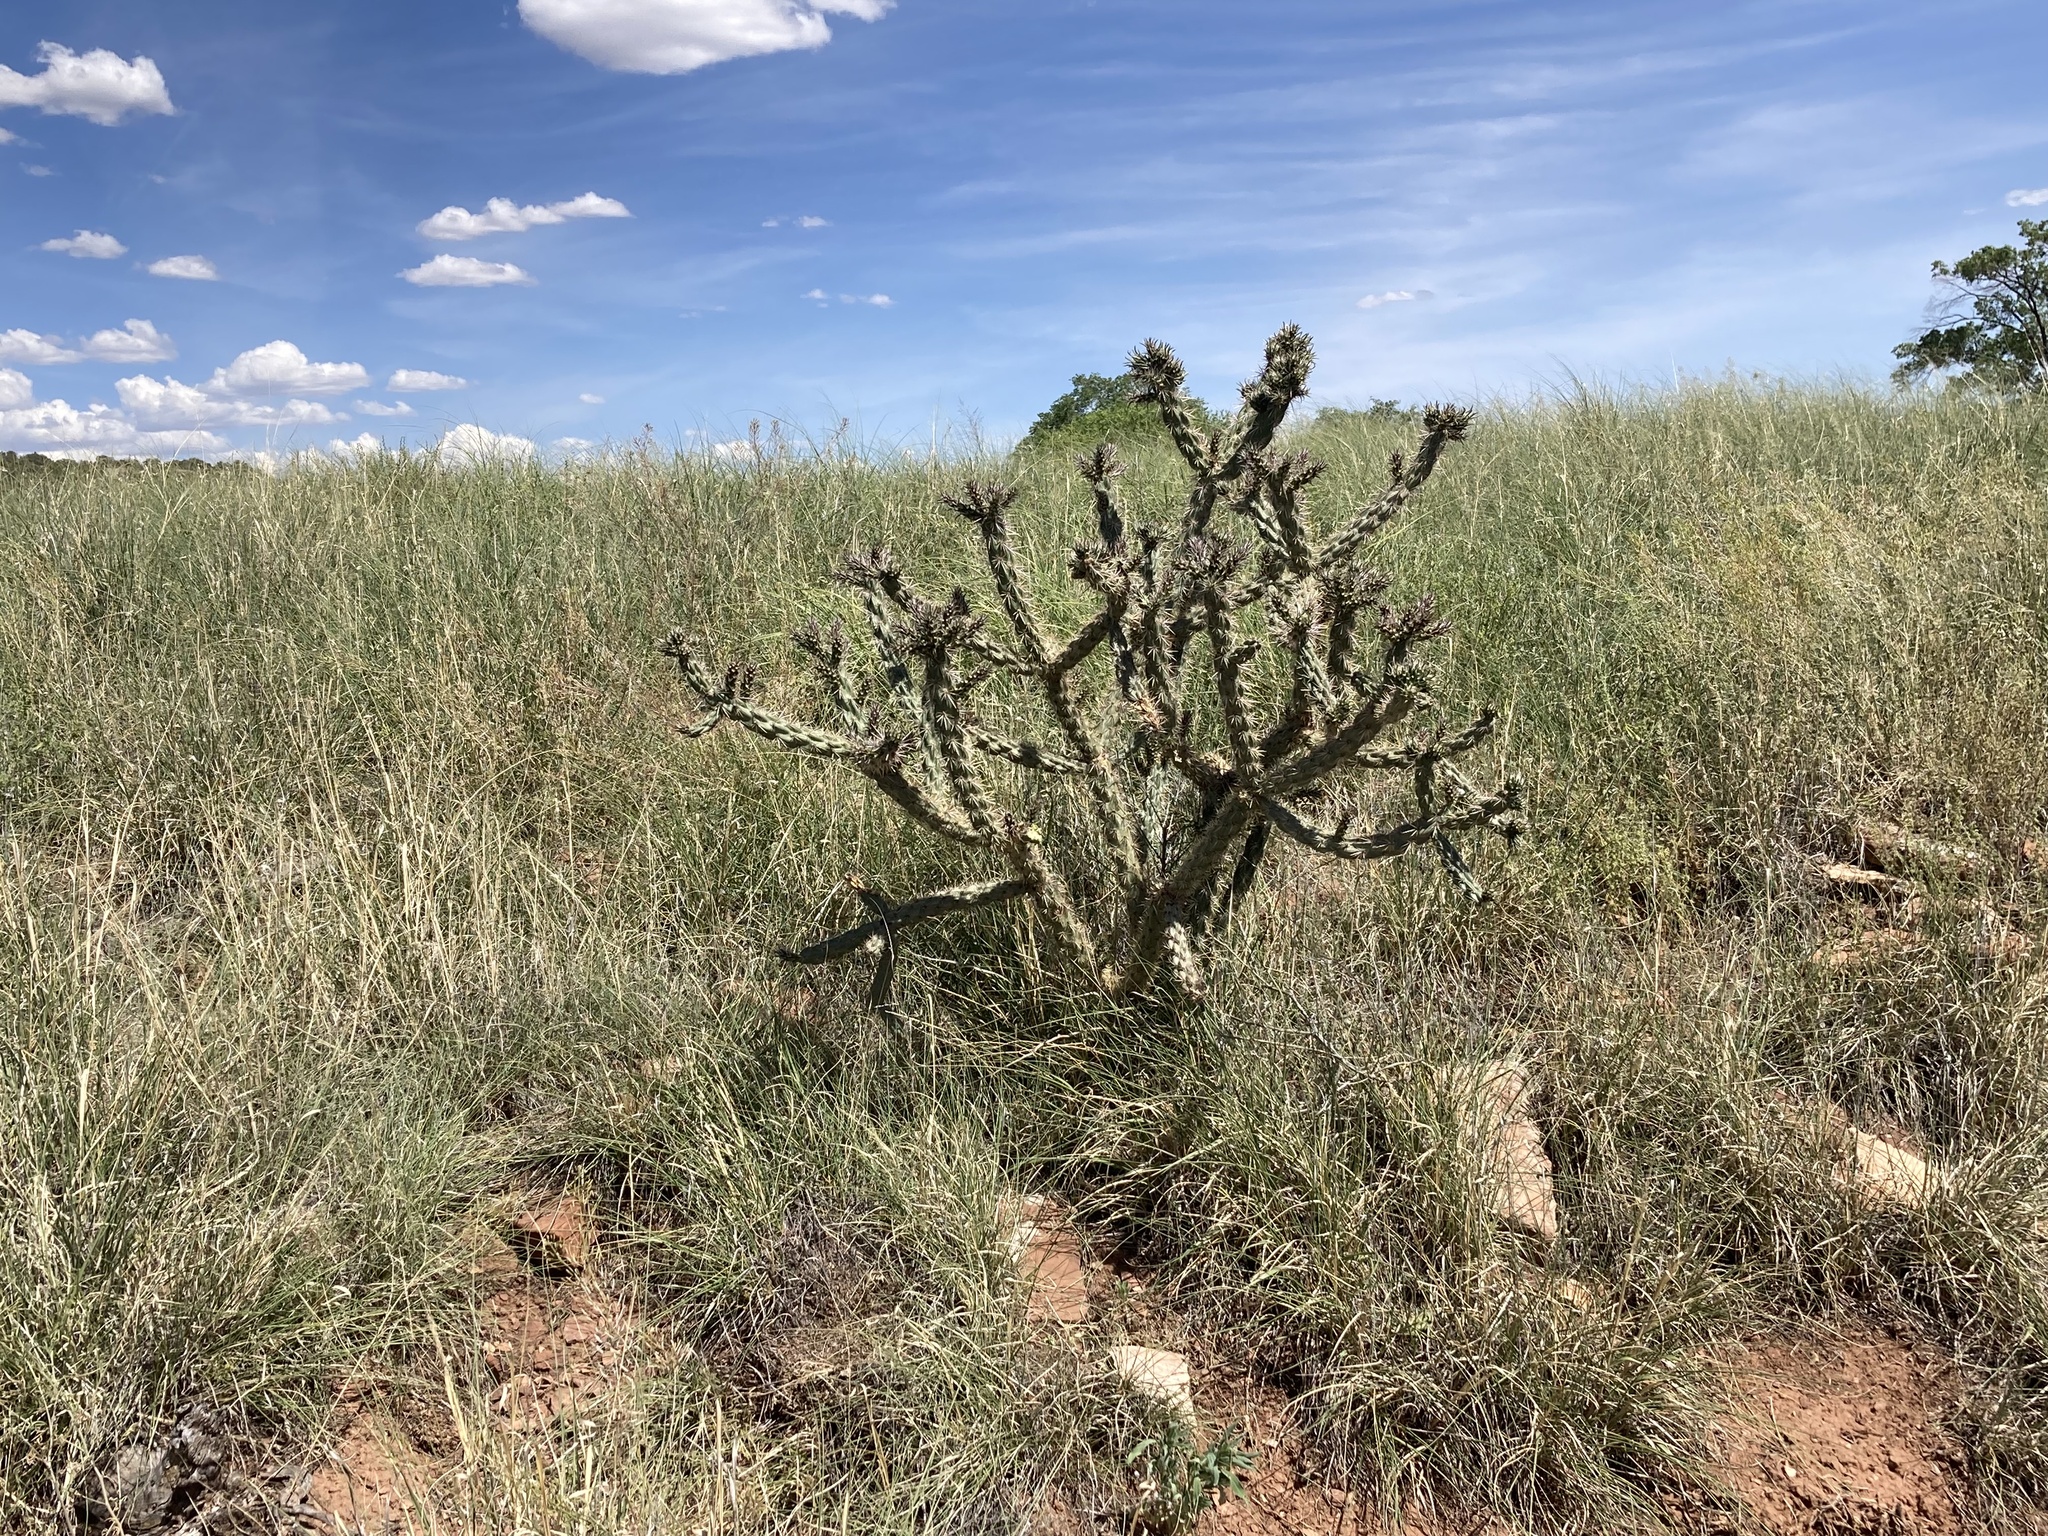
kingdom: Plantae
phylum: Tracheophyta
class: Magnoliopsida
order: Caryophyllales
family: Cactaceae
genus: Cylindropuntia
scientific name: Cylindropuntia imbricata
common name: Candelabrum cactus
